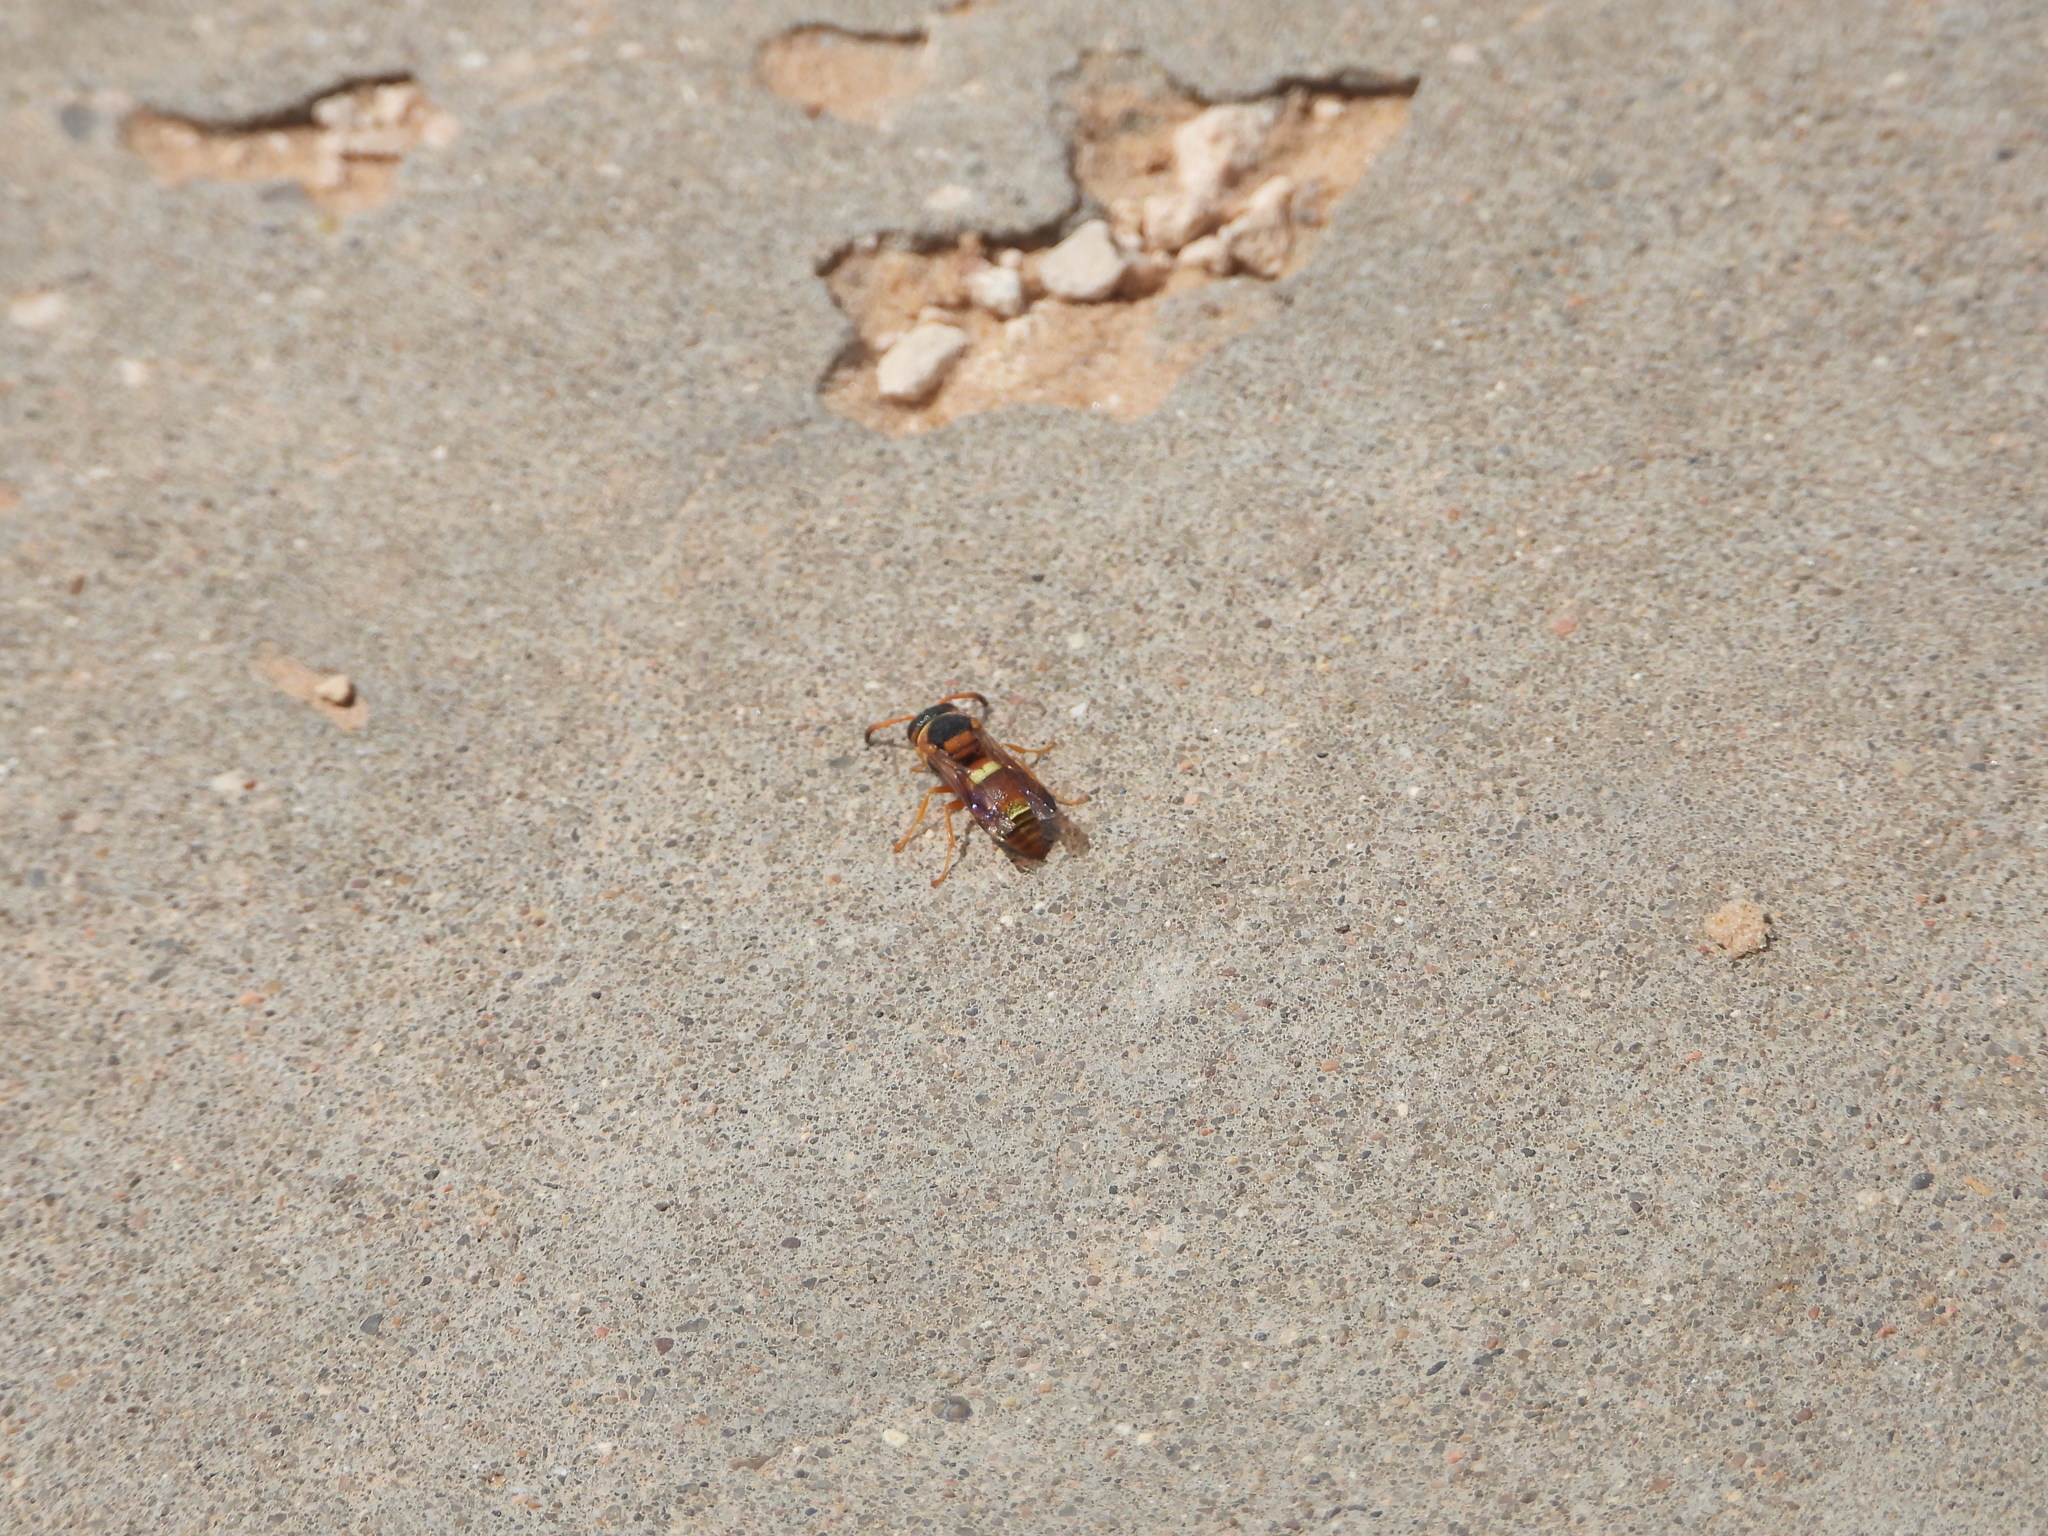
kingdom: Animalia
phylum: Arthropoda
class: Insecta
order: Hymenoptera
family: Eumenidae
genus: Euodynerus
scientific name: Euodynerus
